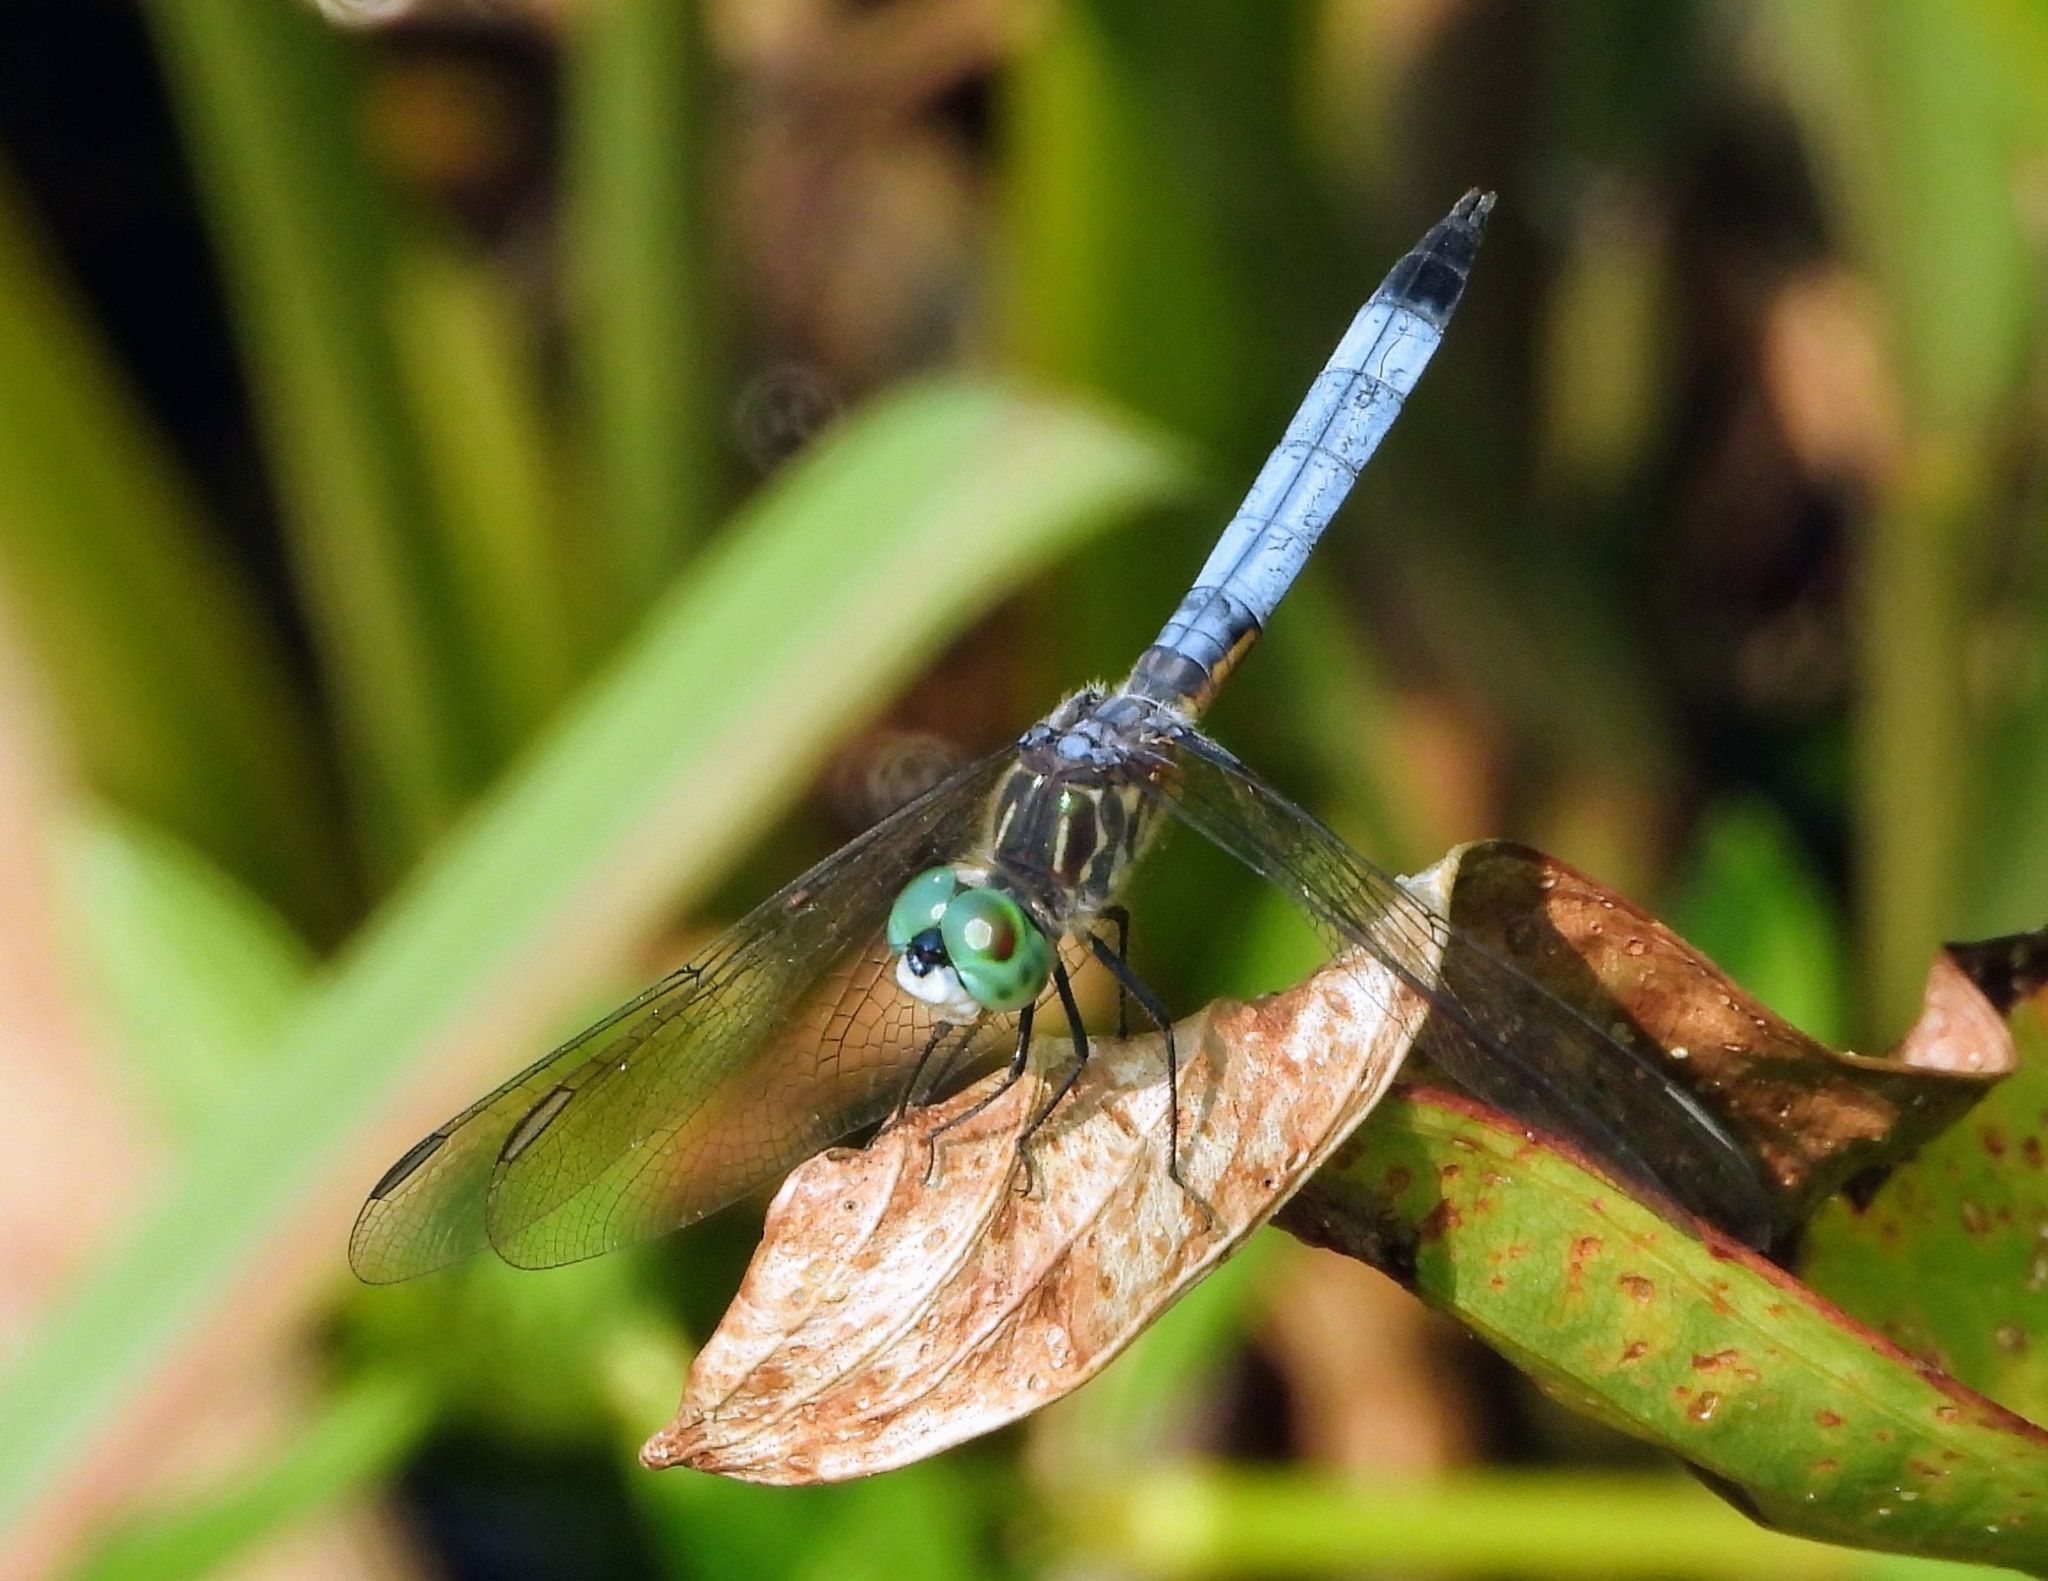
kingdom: Animalia
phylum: Arthropoda
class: Insecta
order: Odonata
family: Libellulidae
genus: Pachydiplax
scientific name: Pachydiplax longipennis
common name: Blue dasher
